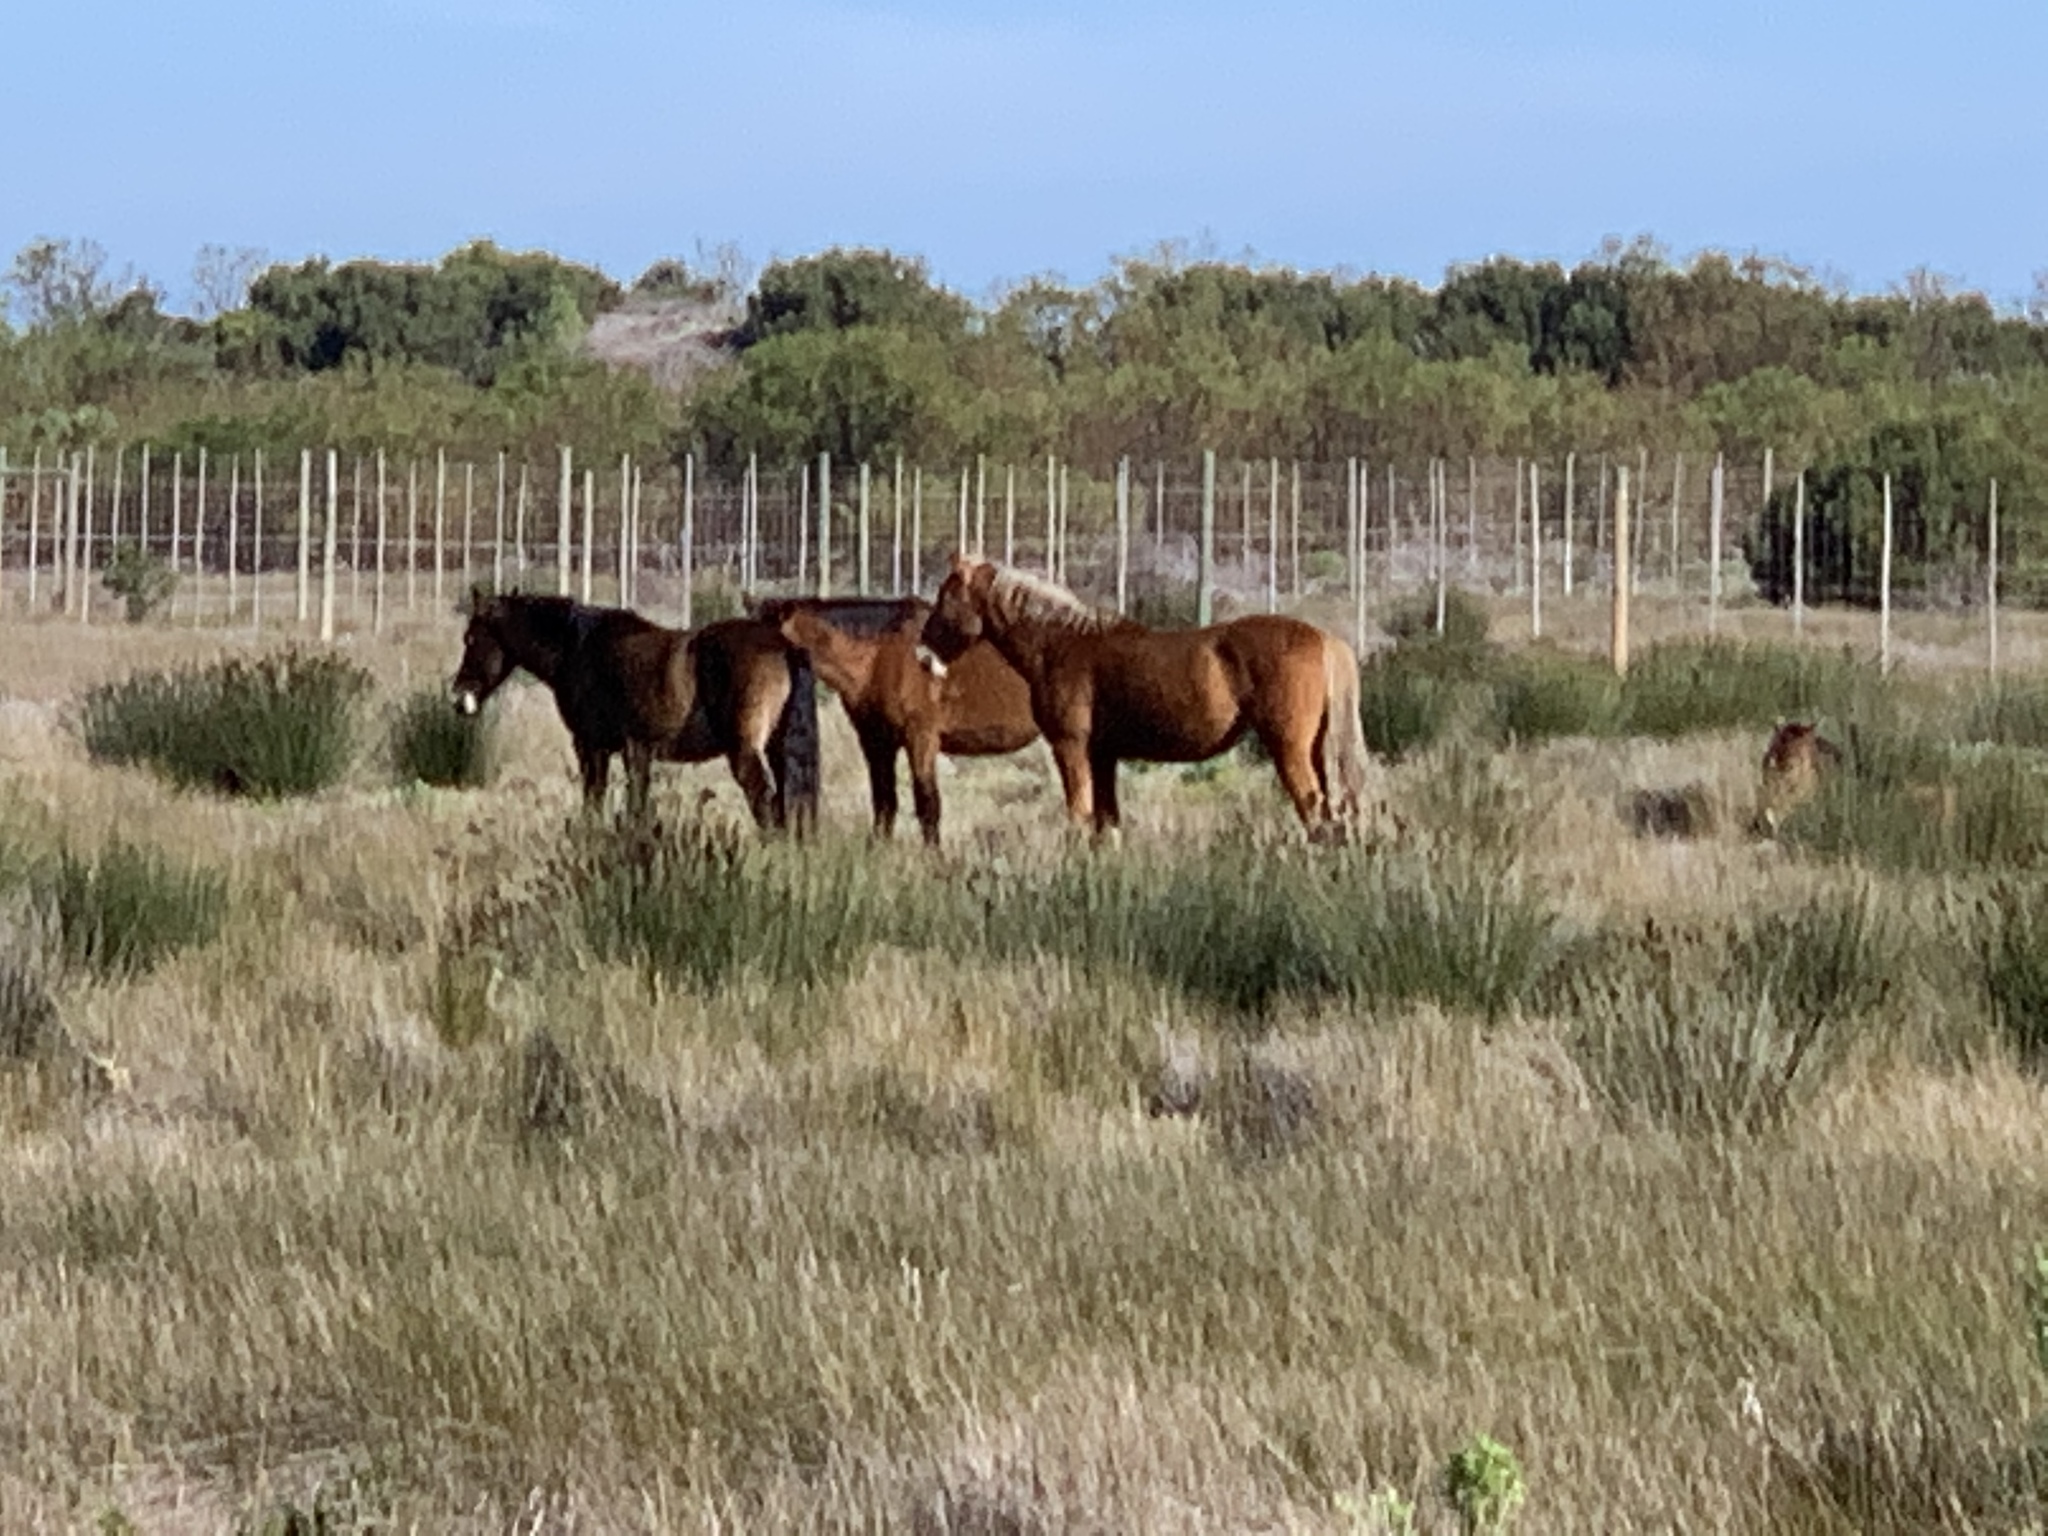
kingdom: Animalia
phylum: Chordata
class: Mammalia
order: Perissodactyla
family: Equidae
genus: Equus
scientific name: Equus caballus
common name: Horse
